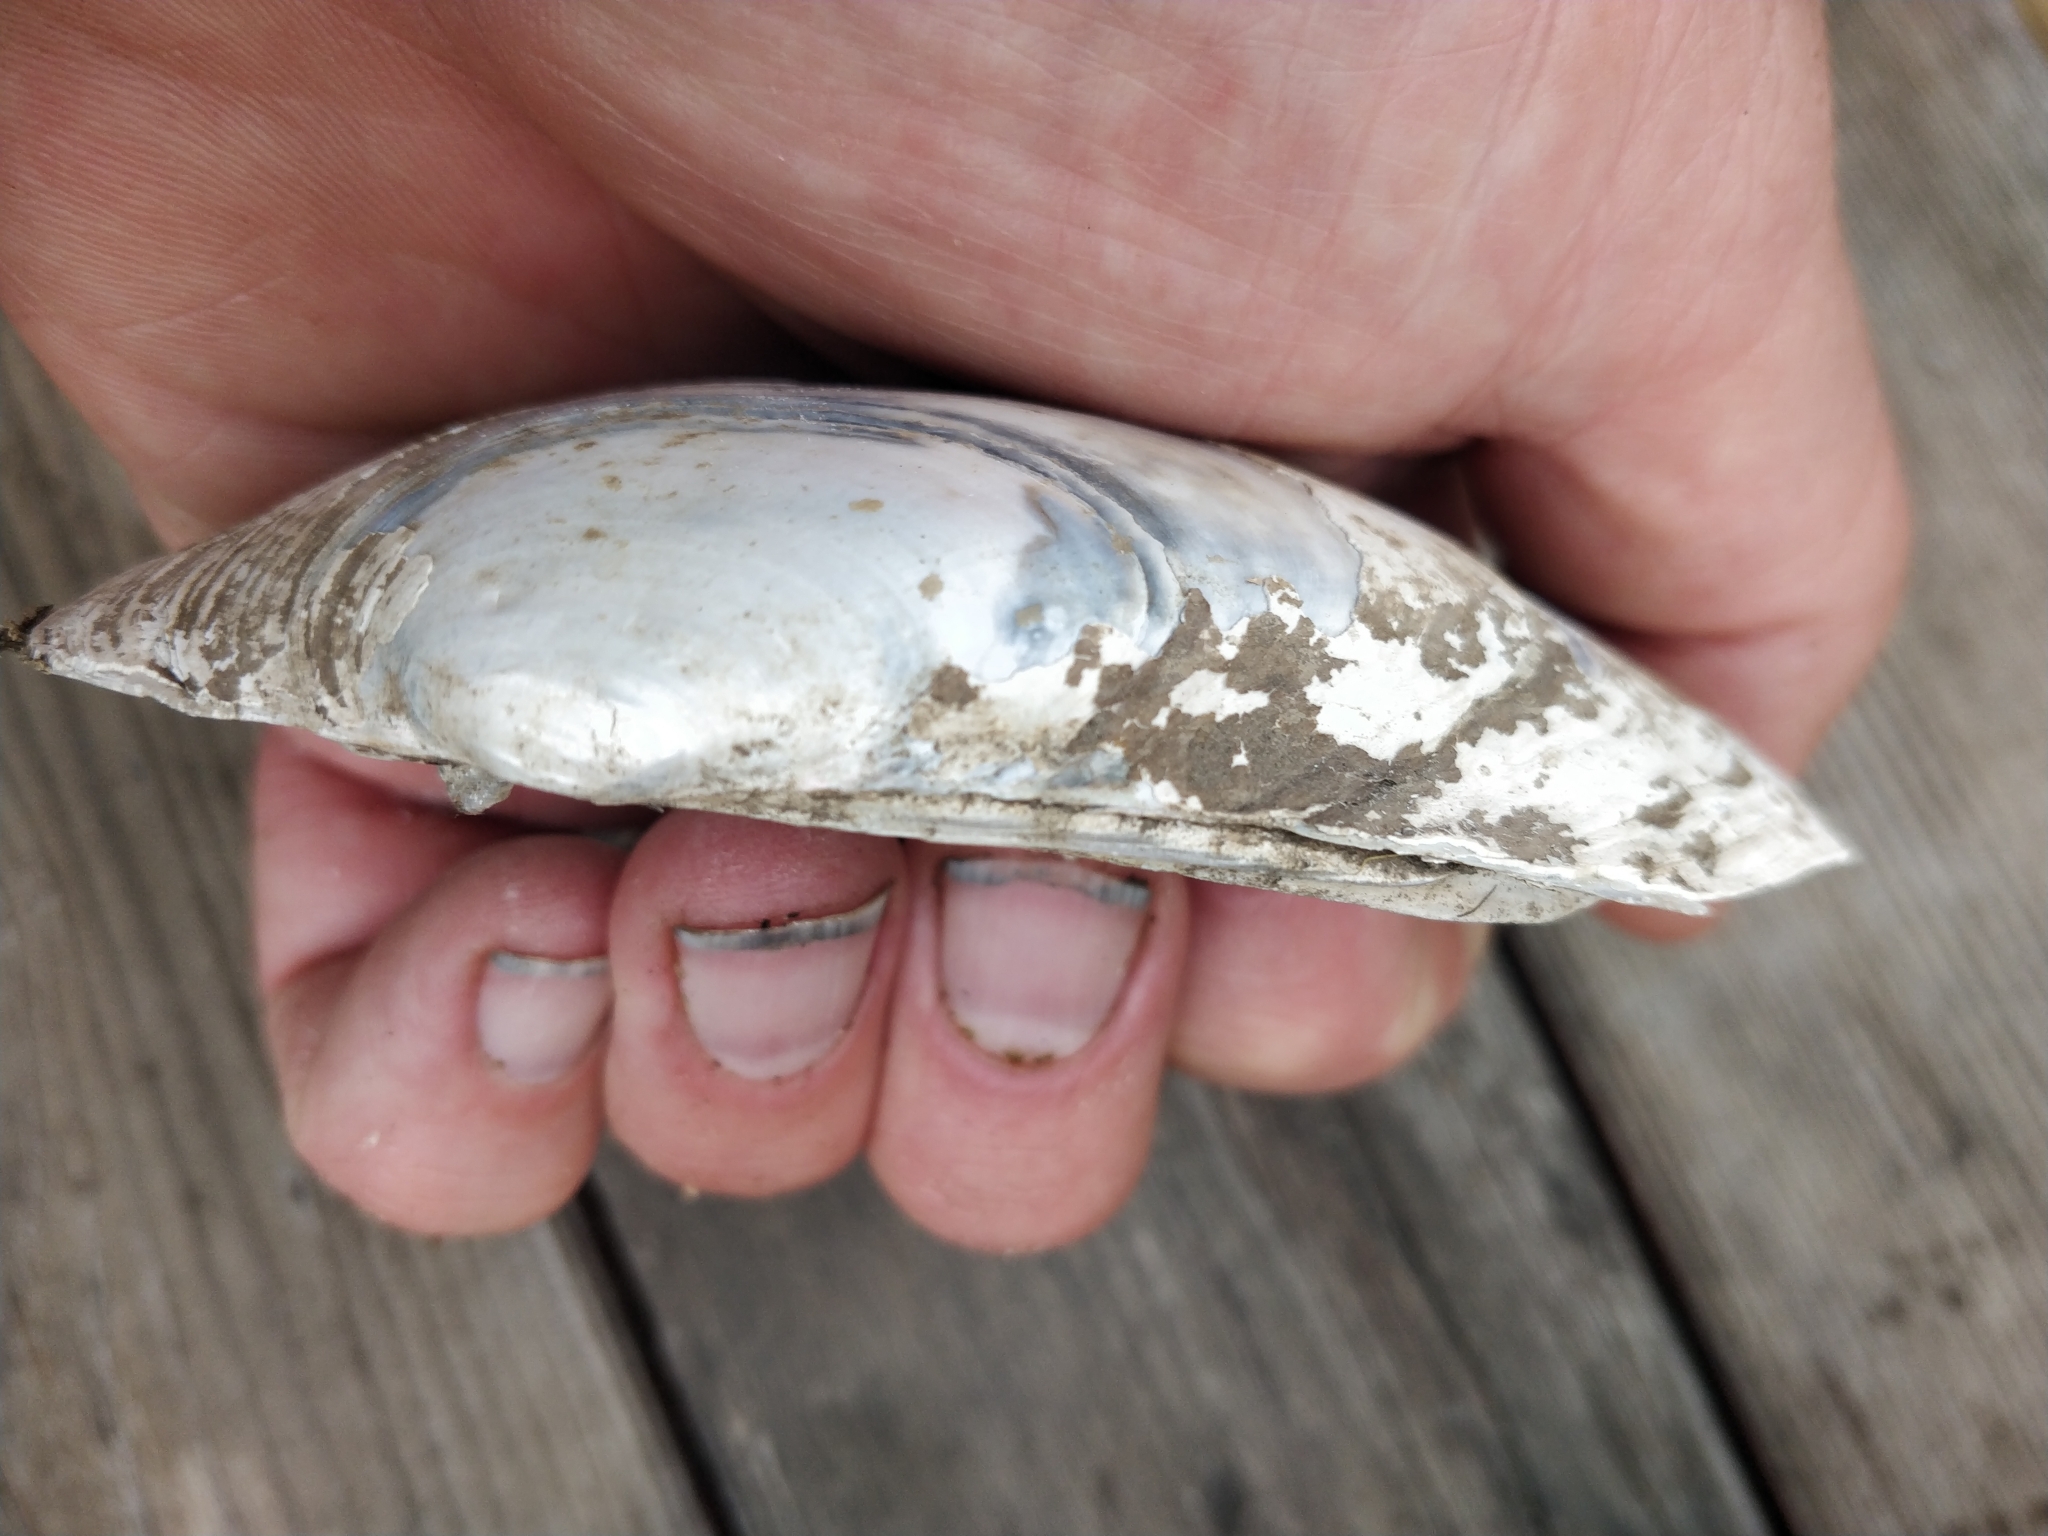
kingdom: Animalia
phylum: Mollusca
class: Bivalvia
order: Unionida
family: Unionidae
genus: Lampsilis
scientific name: Lampsilis siliquoidea
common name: Fatmucket
